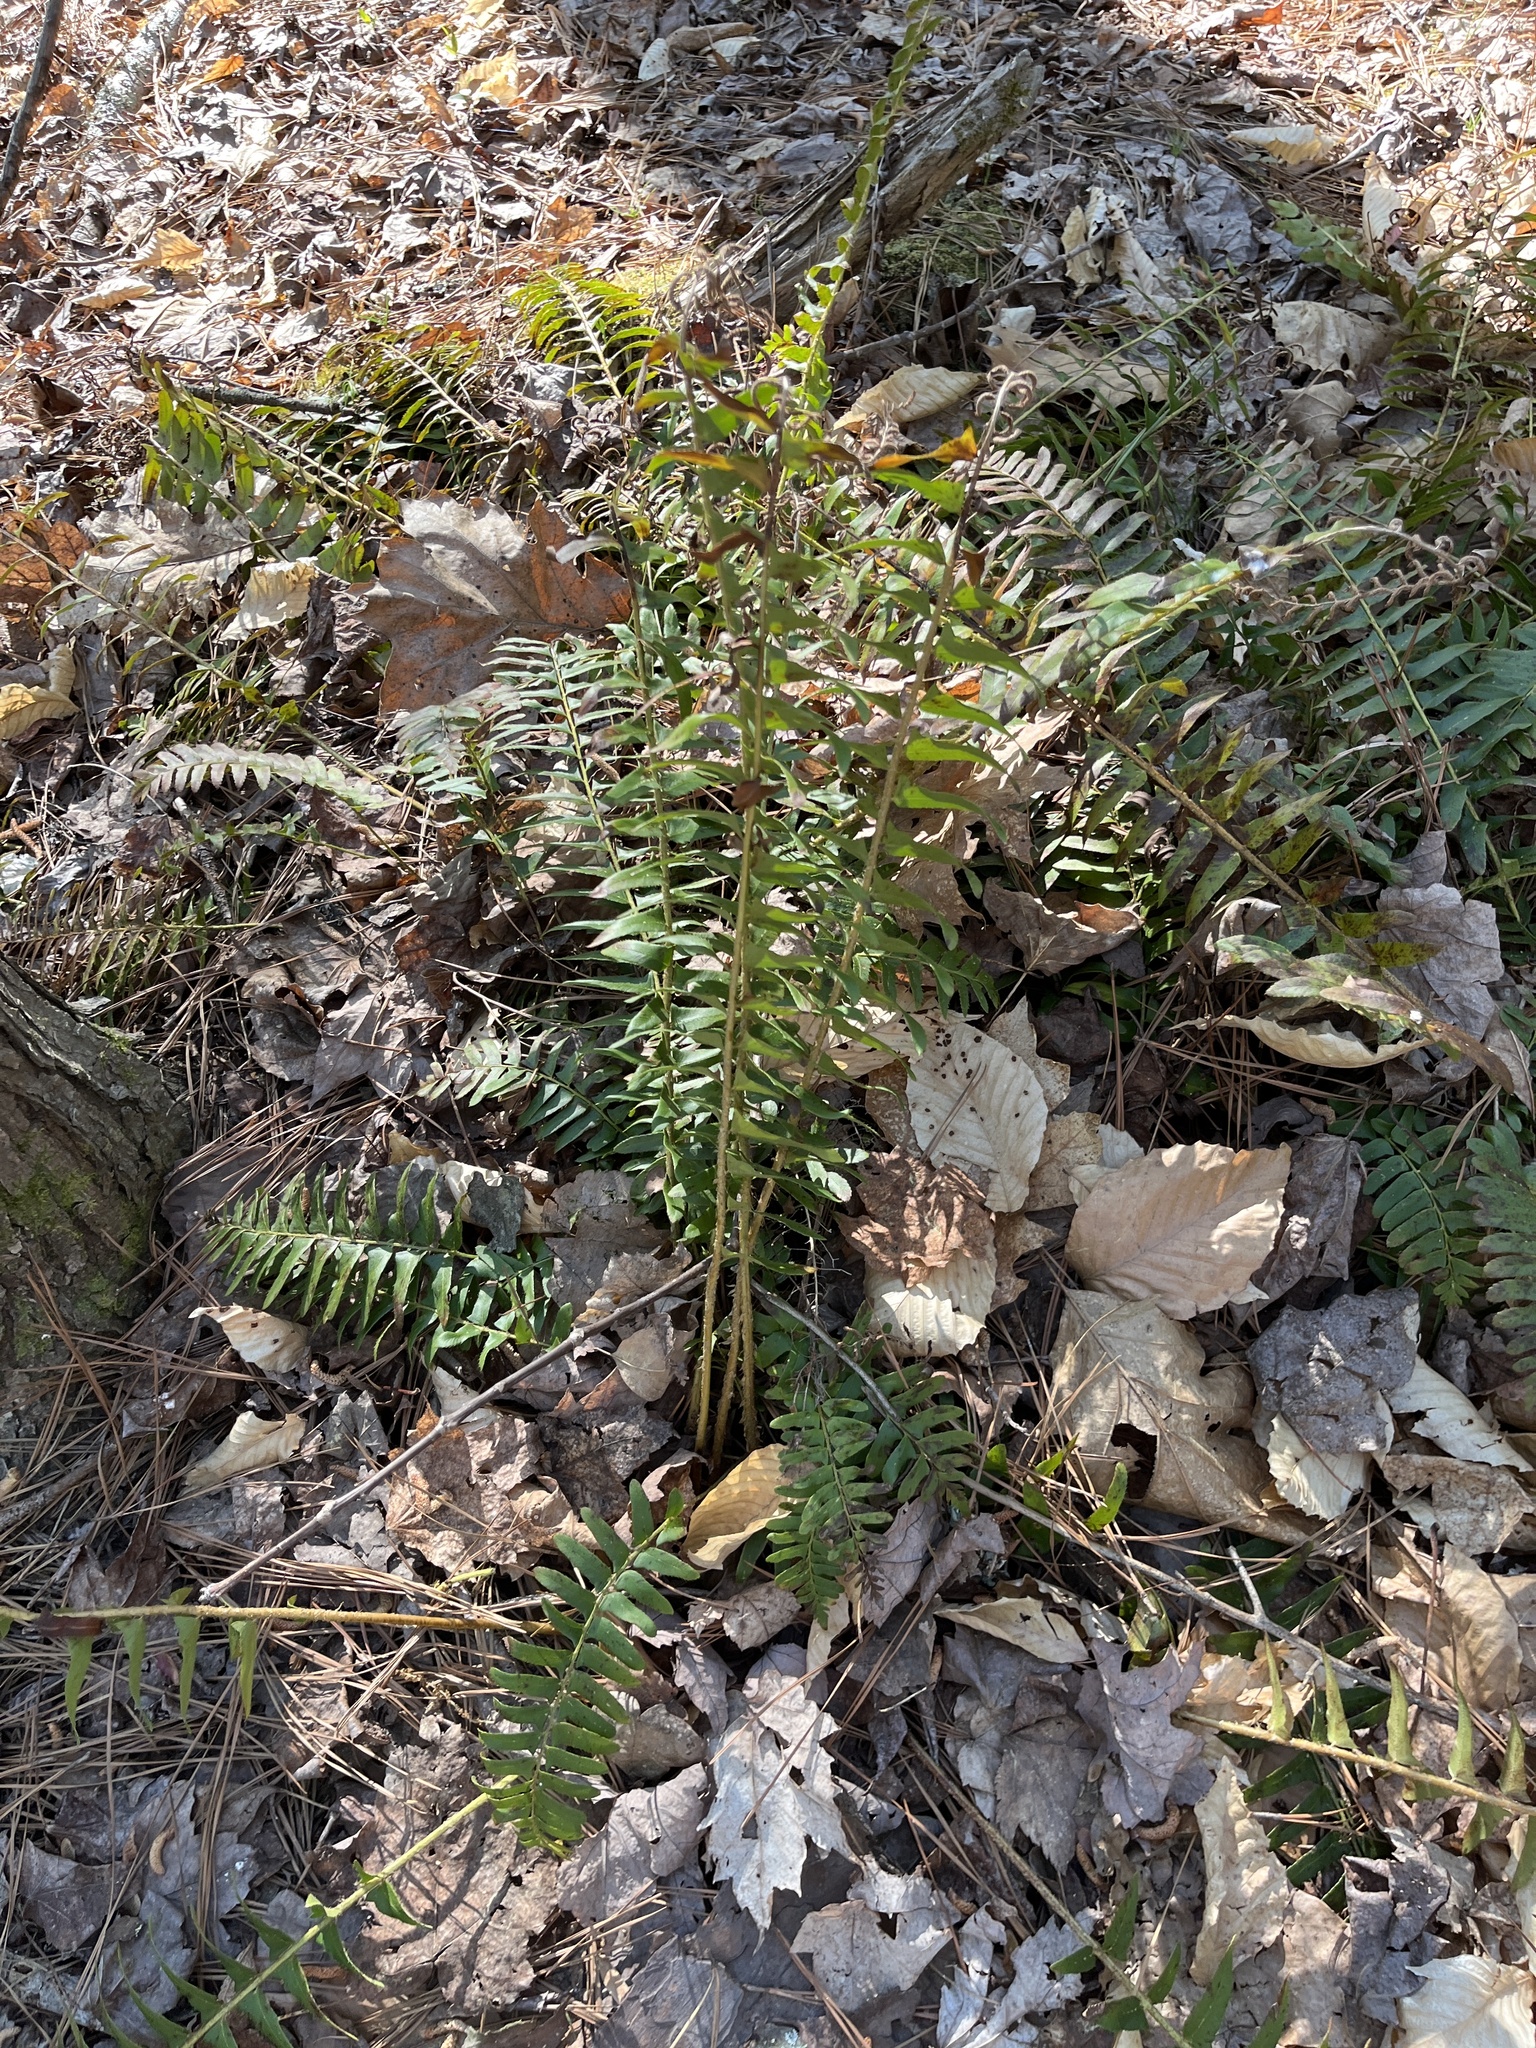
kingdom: Plantae
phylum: Tracheophyta
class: Polypodiopsida
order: Polypodiales
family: Dryopteridaceae
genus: Polystichum
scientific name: Polystichum acrostichoides
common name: Christmas fern
